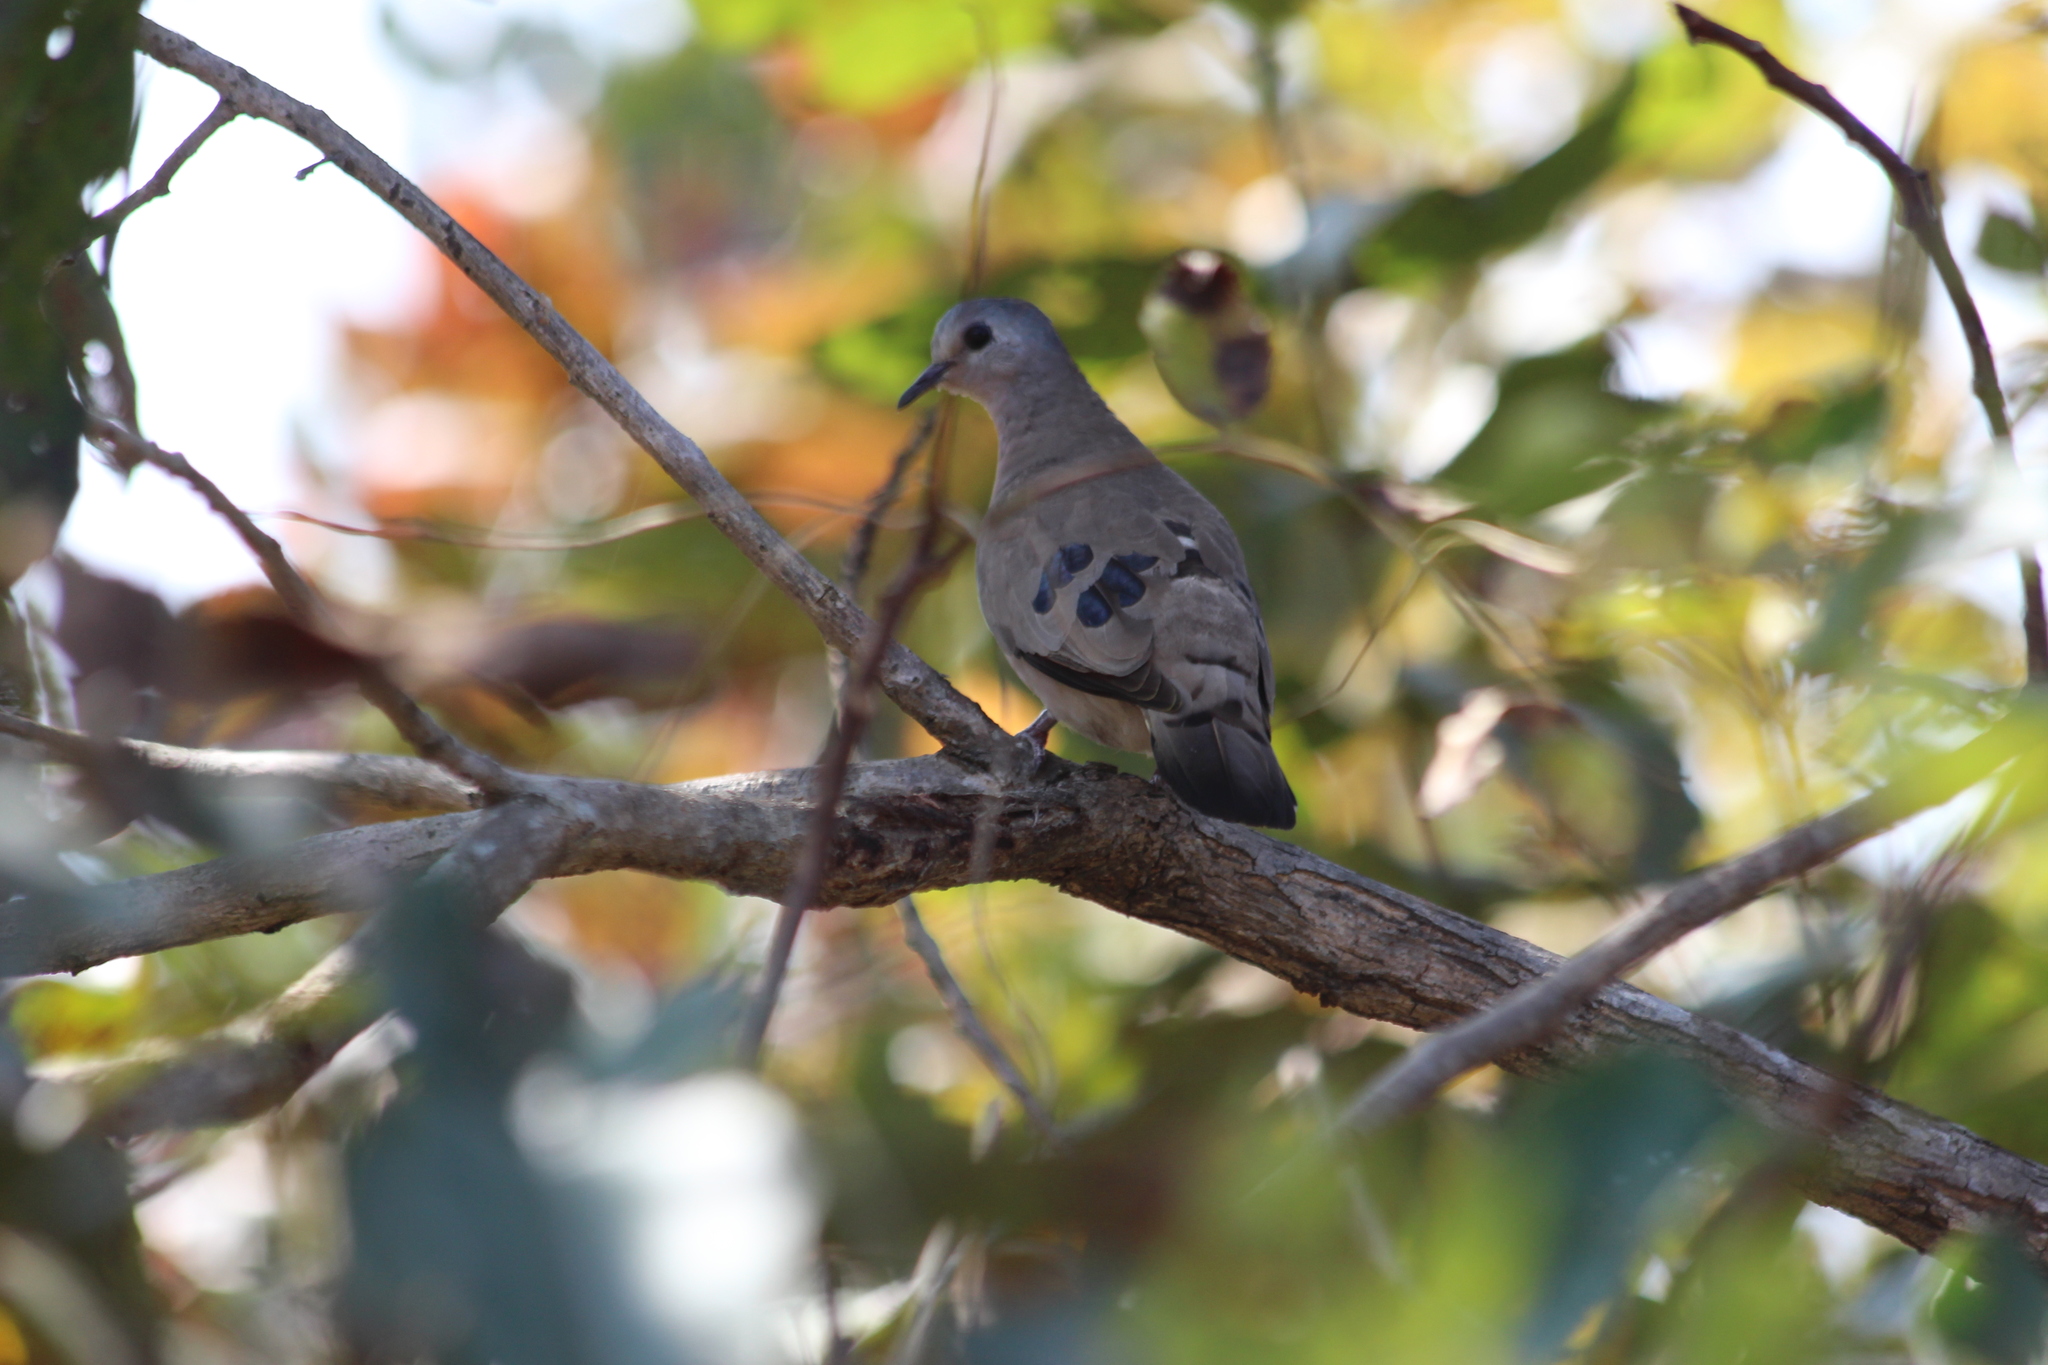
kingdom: Animalia
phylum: Chordata
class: Aves
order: Columbiformes
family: Columbidae
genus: Turtur
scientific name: Turtur chalcospilos
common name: Emerald-spotted wood dove
